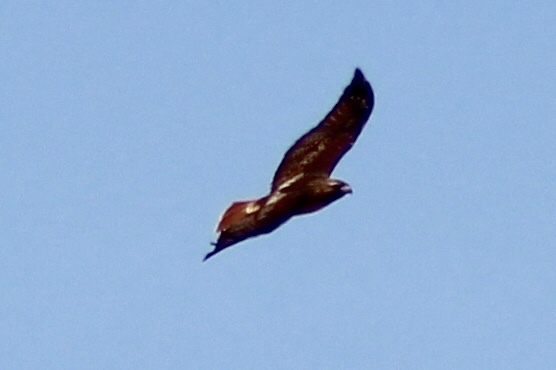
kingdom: Animalia
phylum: Chordata
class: Aves
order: Accipitriformes
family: Accipitridae
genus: Buteo
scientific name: Buteo jamaicensis
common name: Red-tailed hawk
